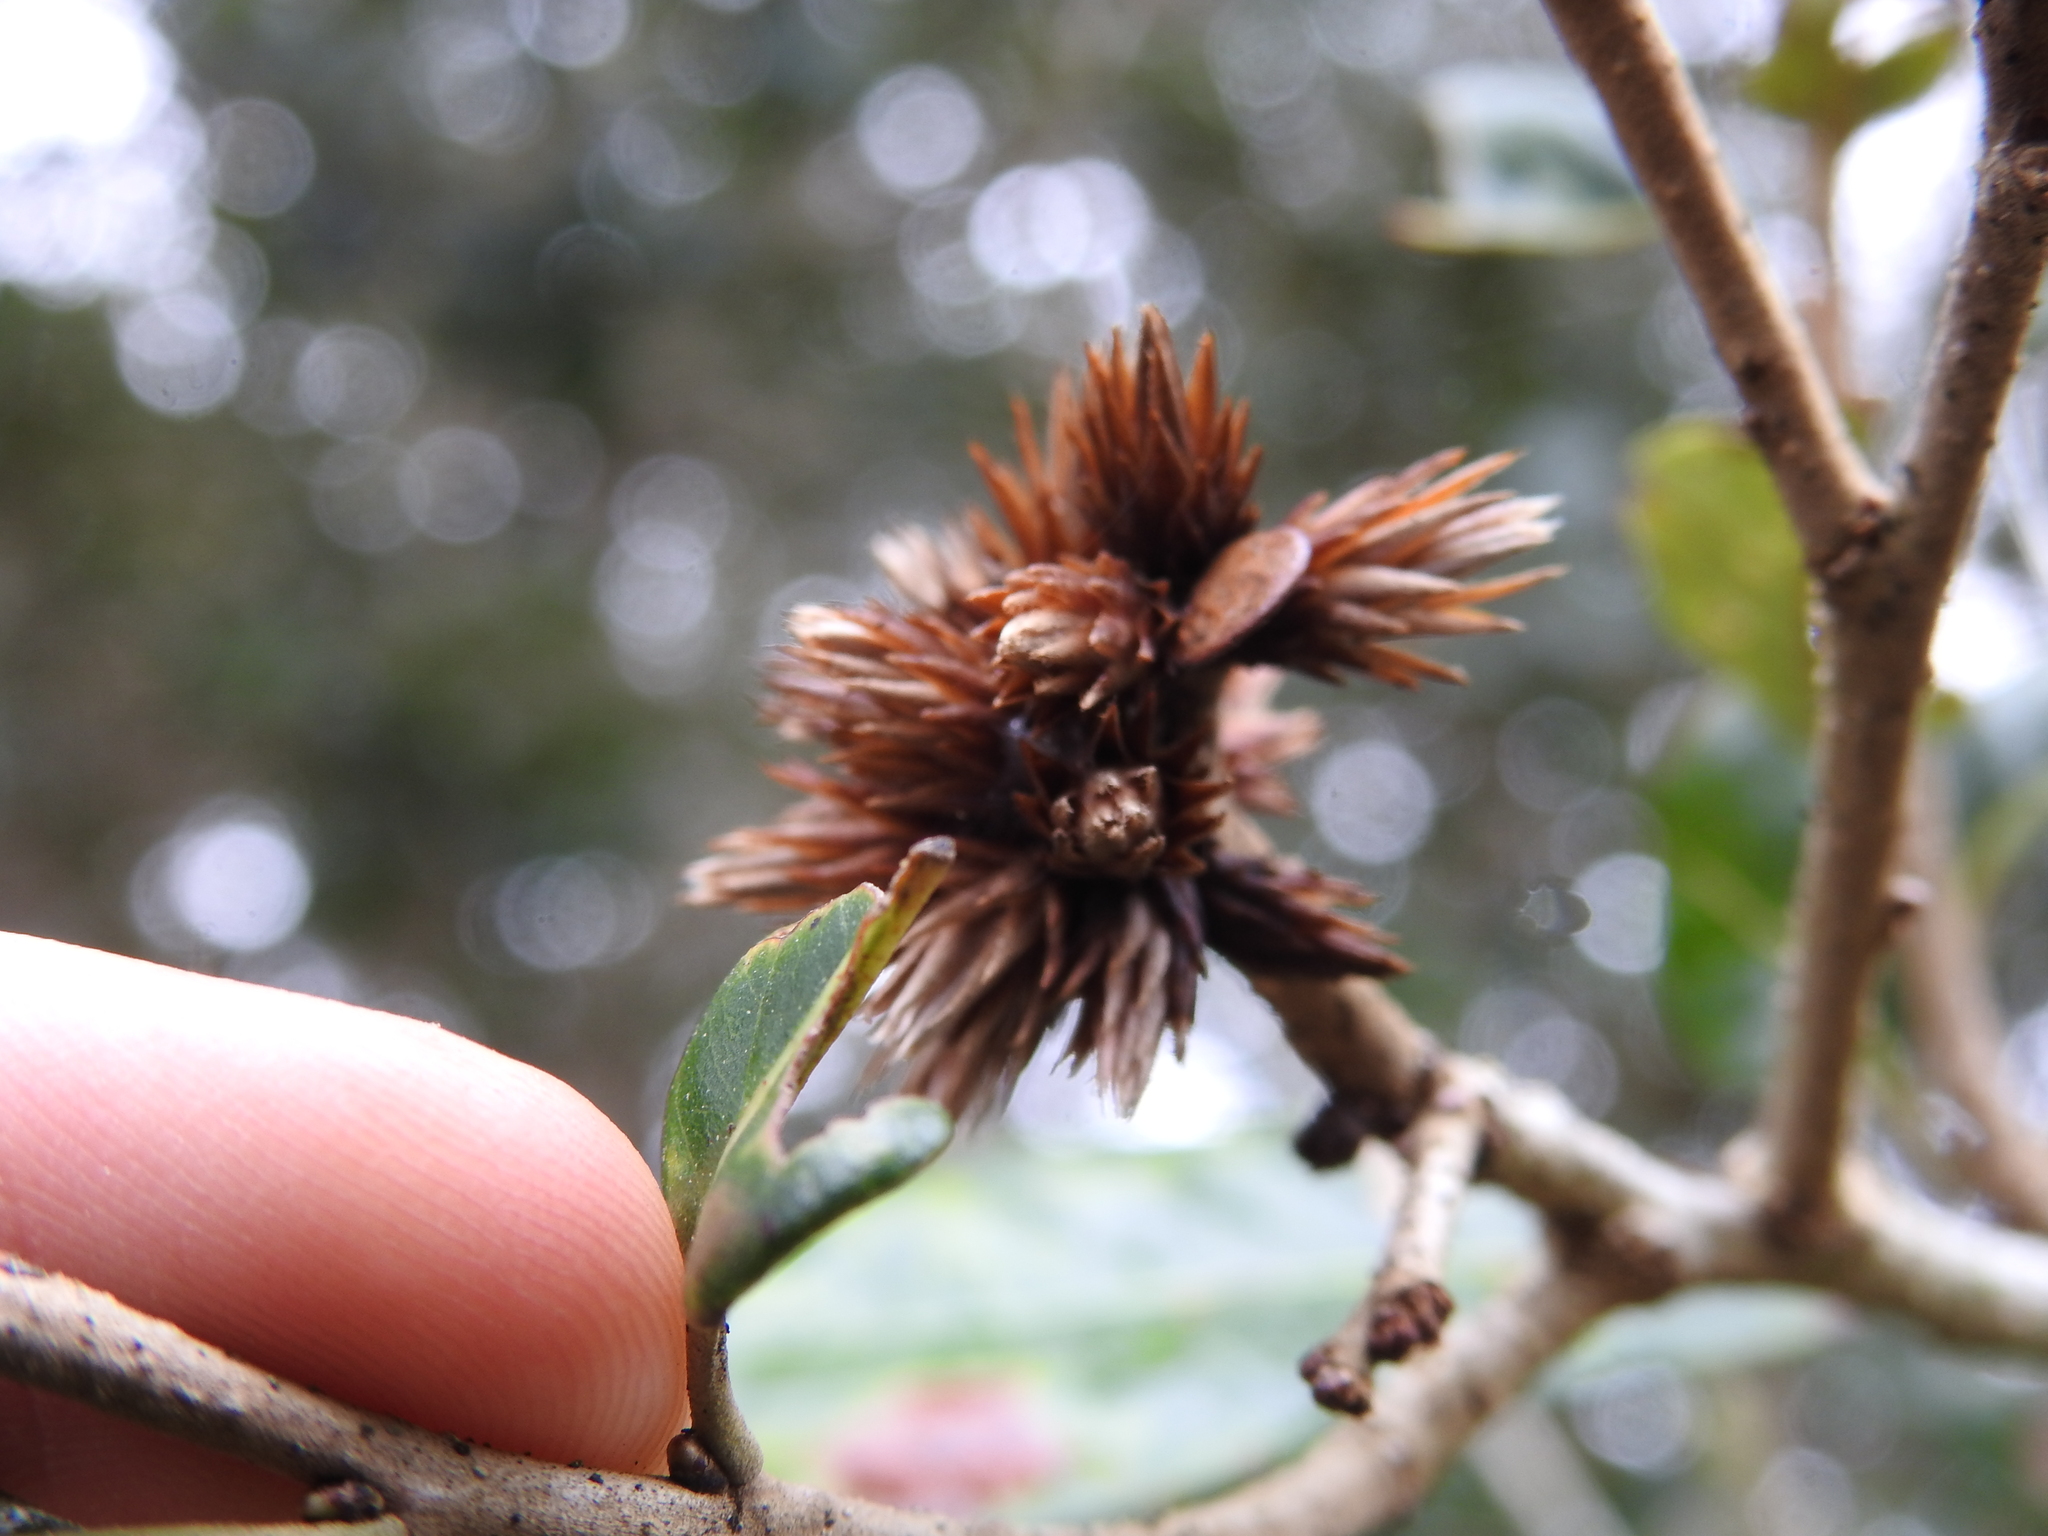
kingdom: Animalia
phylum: Arthropoda
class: Insecta
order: Hymenoptera
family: Cynipidae
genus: Andricus
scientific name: Andricus quercusfoliatus
